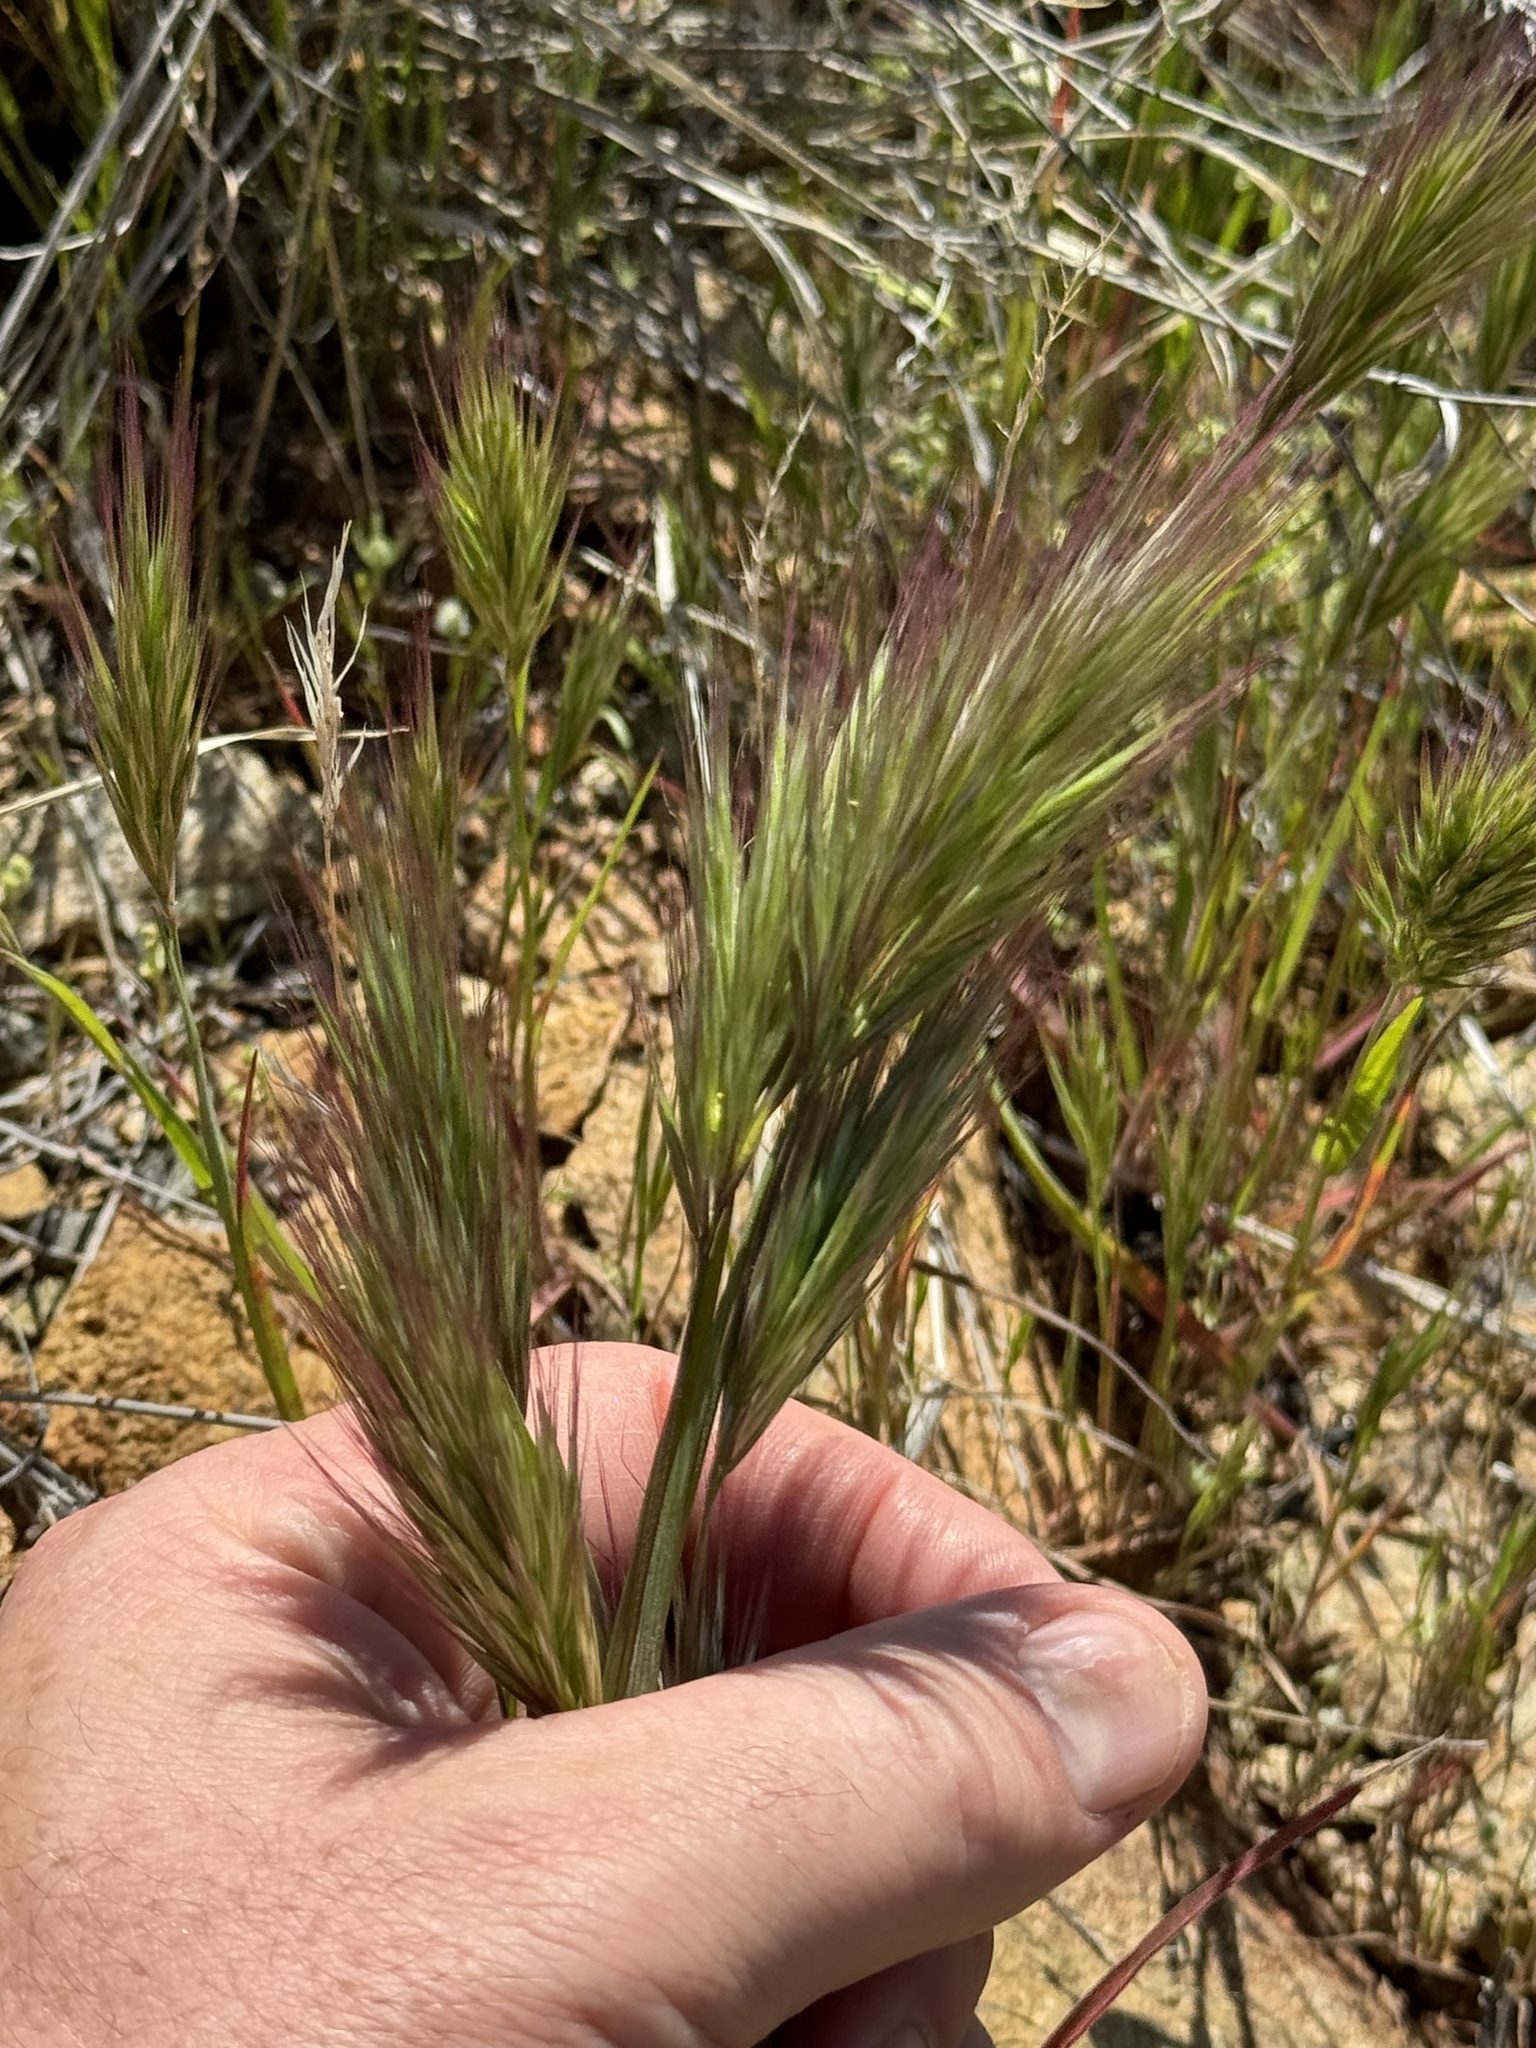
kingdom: Plantae
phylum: Tracheophyta
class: Liliopsida
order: Poales
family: Poaceae
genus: Bromus
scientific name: Bromus rubens
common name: Red brome
